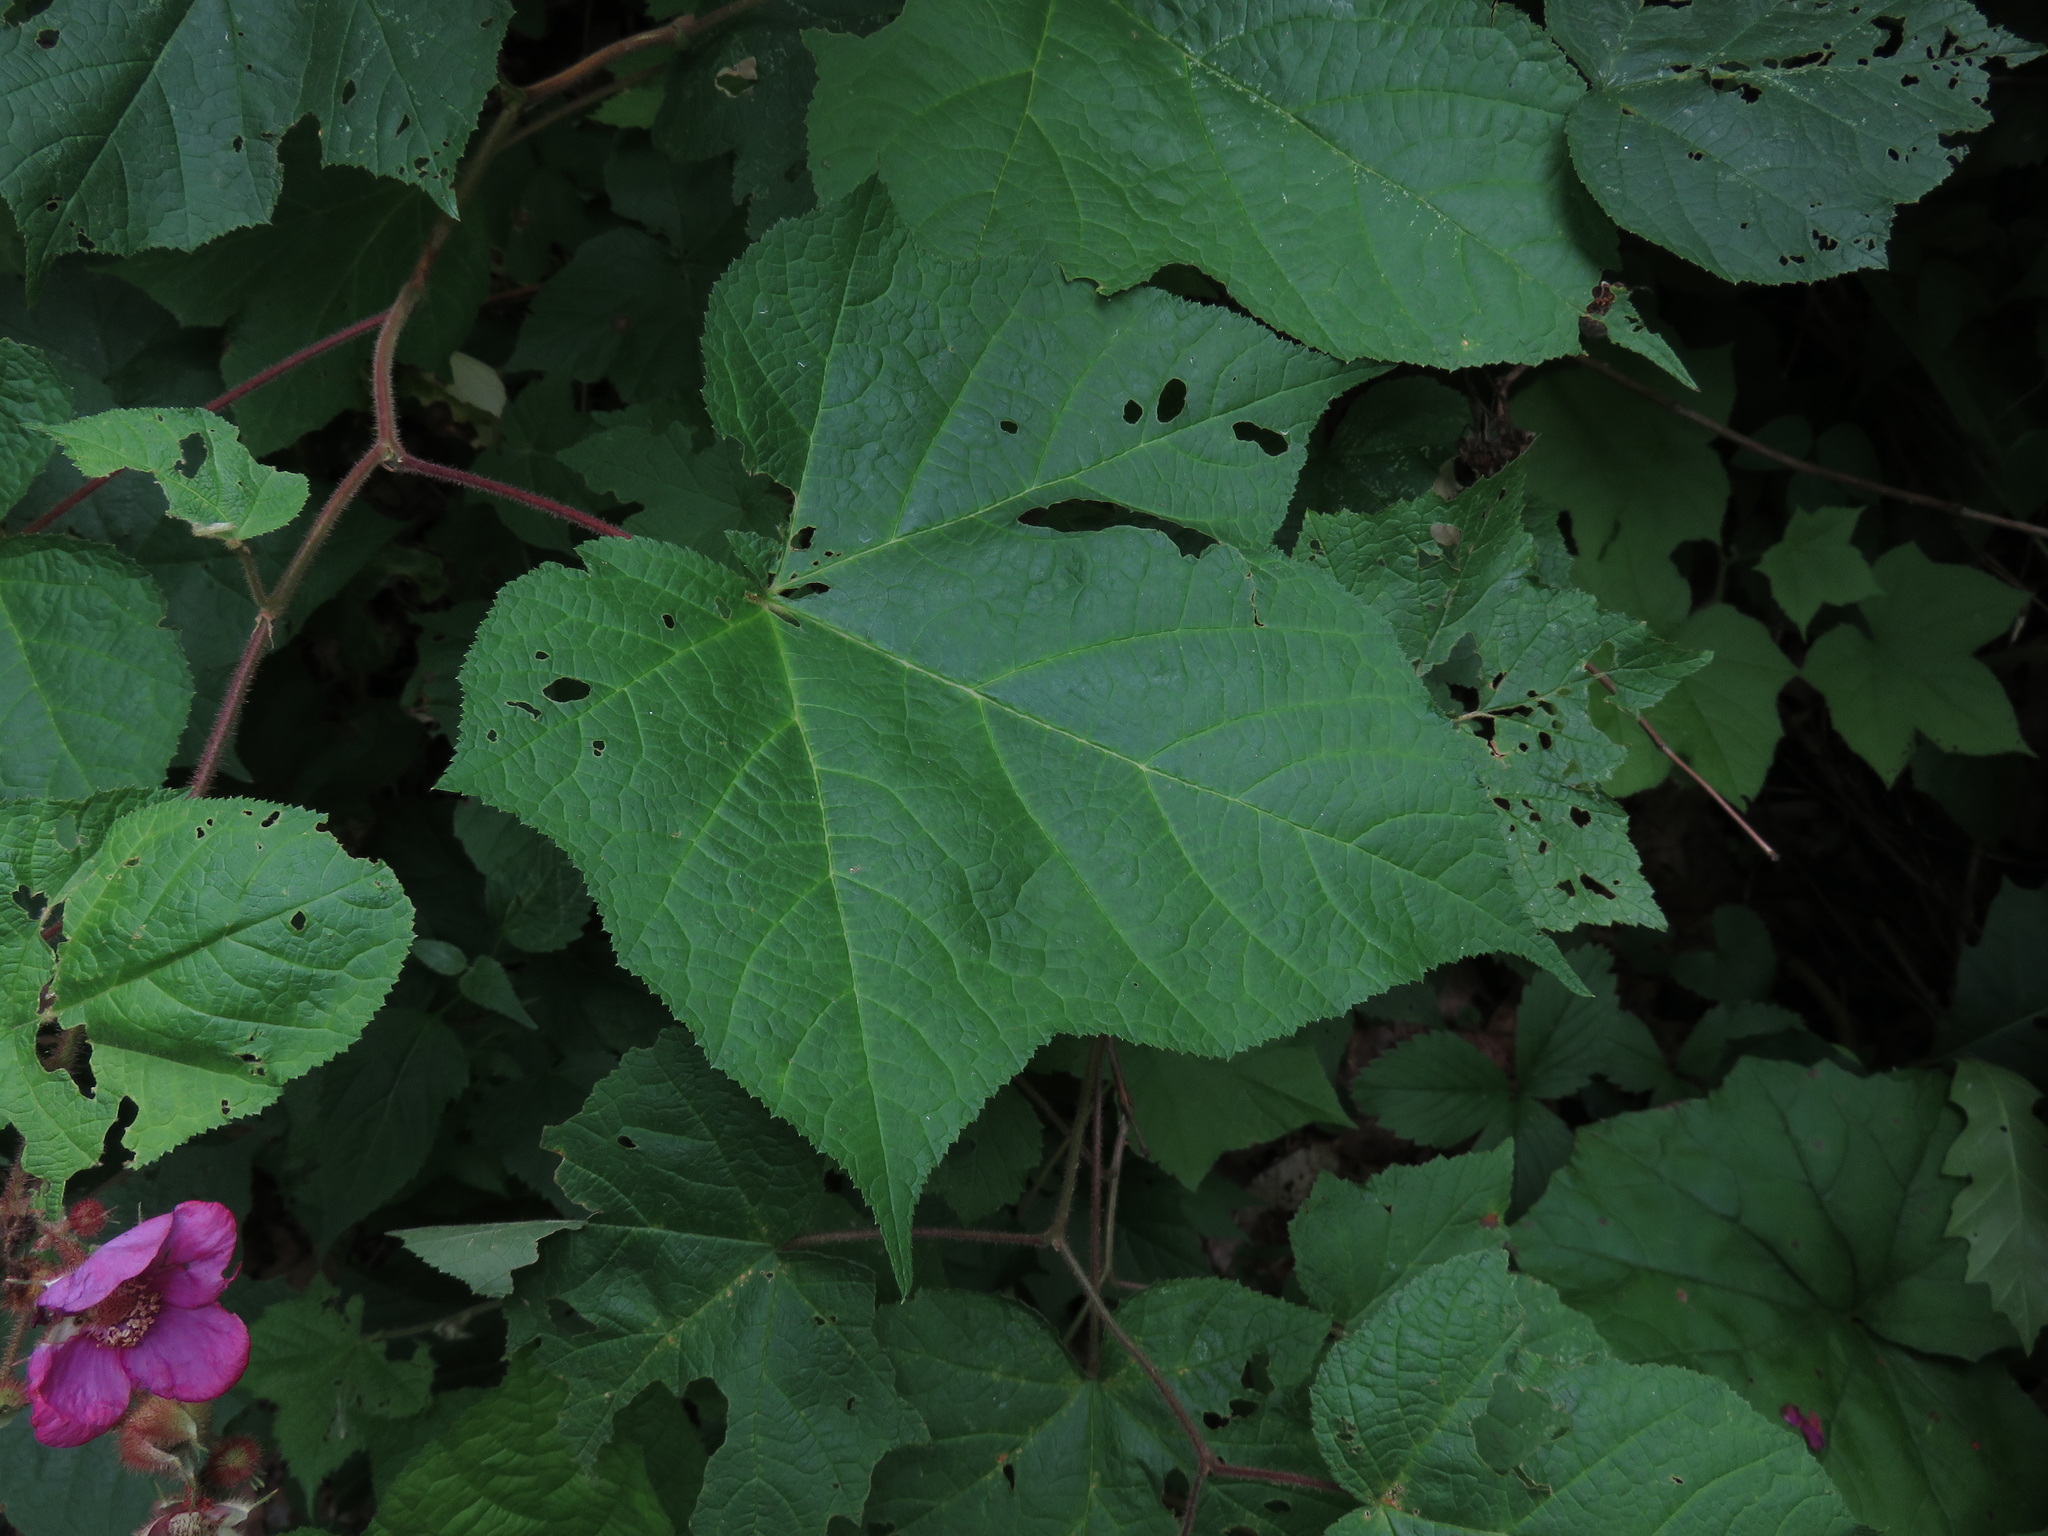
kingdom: Plantae
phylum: Tracheophyta
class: Magnoliopsida
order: Rosales
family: Rosaceae
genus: Rubus
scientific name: Rubus odoratus
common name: Purple-flowered raspberry
